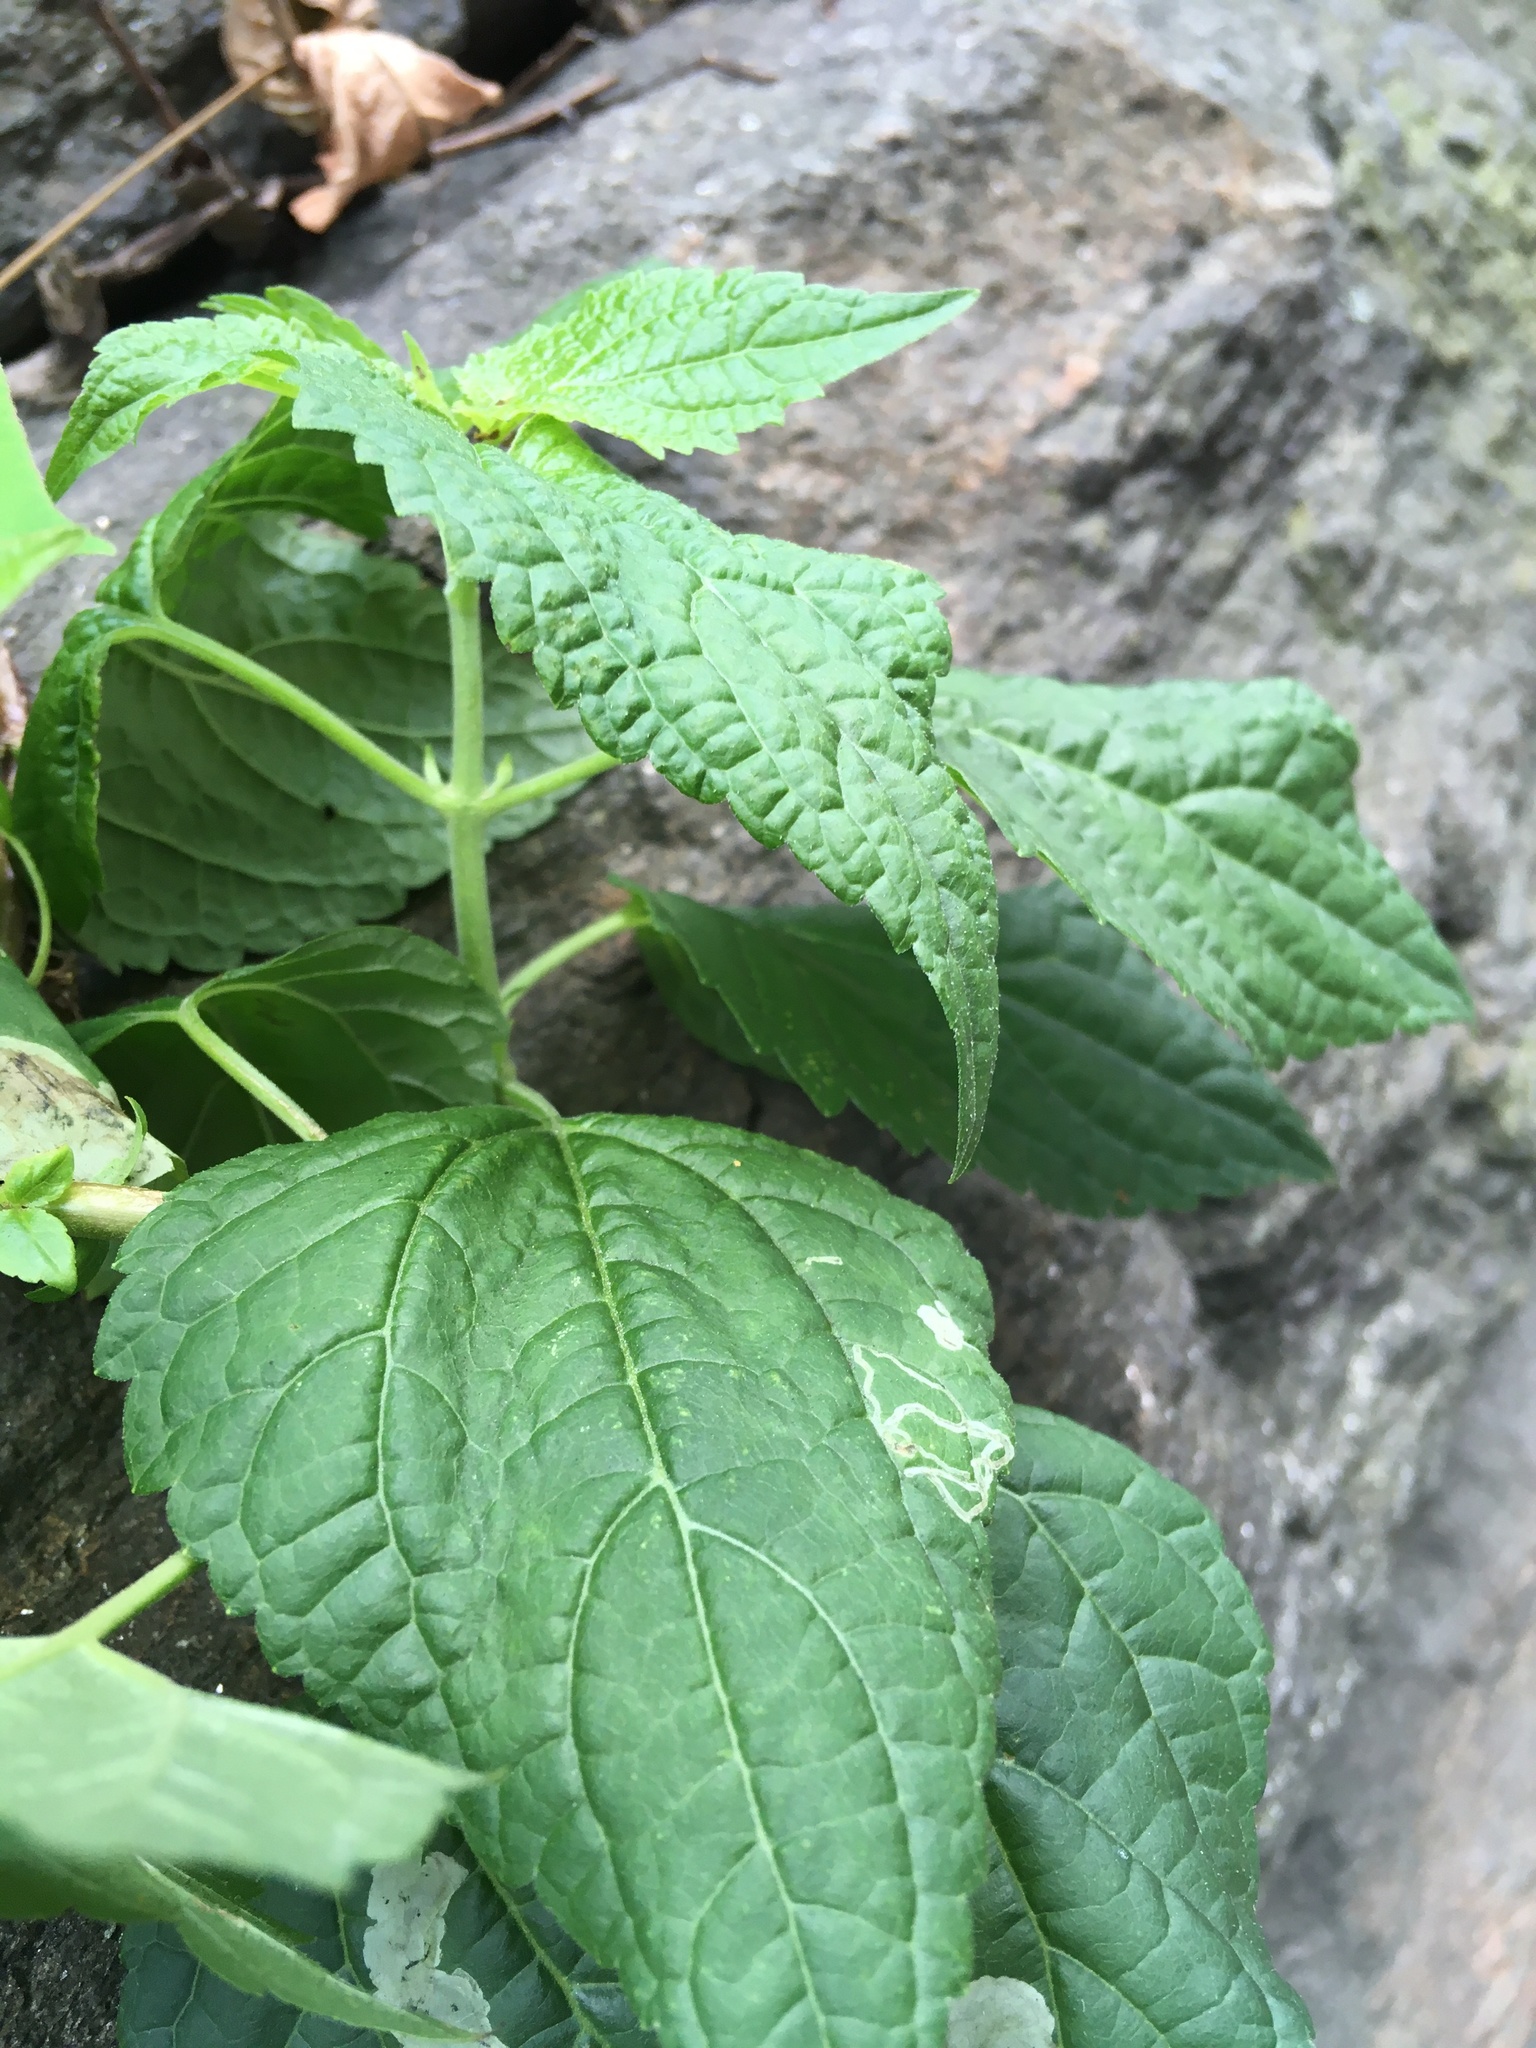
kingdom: Plantae
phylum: Tracheophyta
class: Magnoliopsida
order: Asterales
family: Asteraceae
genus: Ageratina
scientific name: Ageratina altissima
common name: White snakeroot
